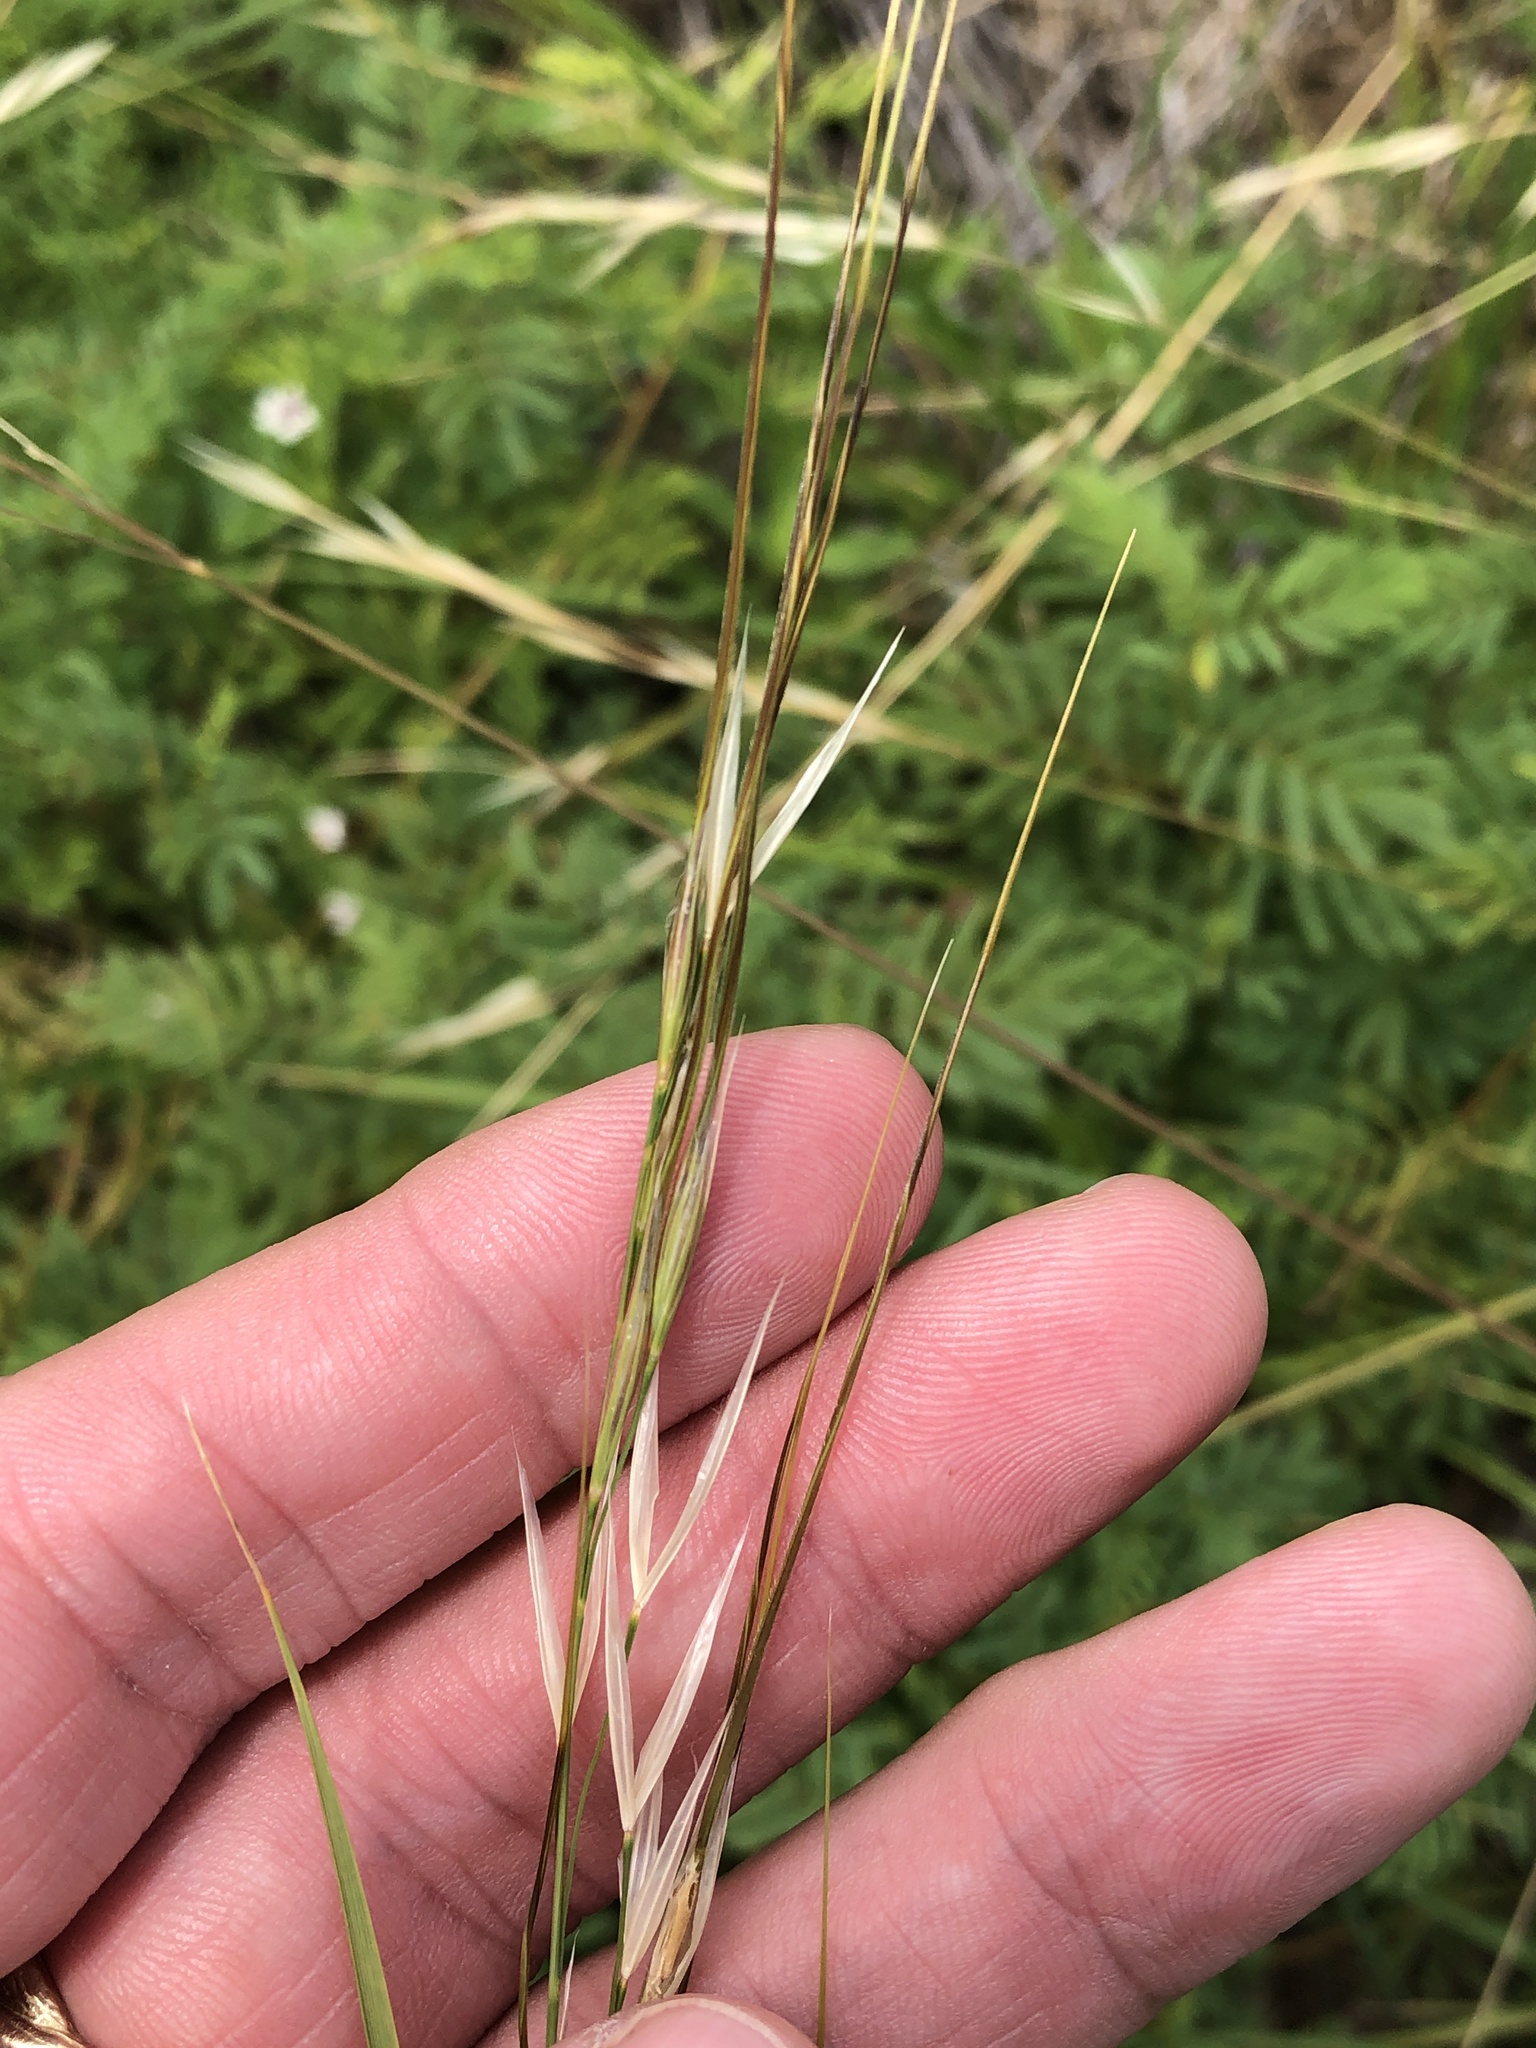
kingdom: Plantae
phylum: Tracheophyta
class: Liliopsida
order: Poales
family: Poaceae
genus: Nassella
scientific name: Nassella leucotricha
